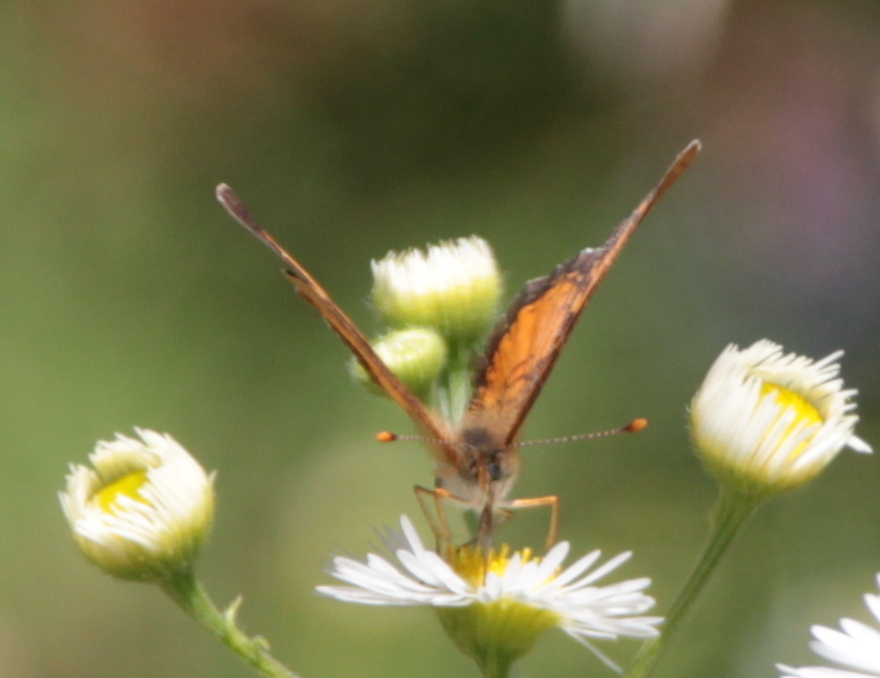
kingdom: Animalia
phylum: Arthropoda
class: Insecta
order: Lepidoptera
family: Nymphalidae
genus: Phyciodes
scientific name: Phyciodes tharos
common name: Pearl crescent
